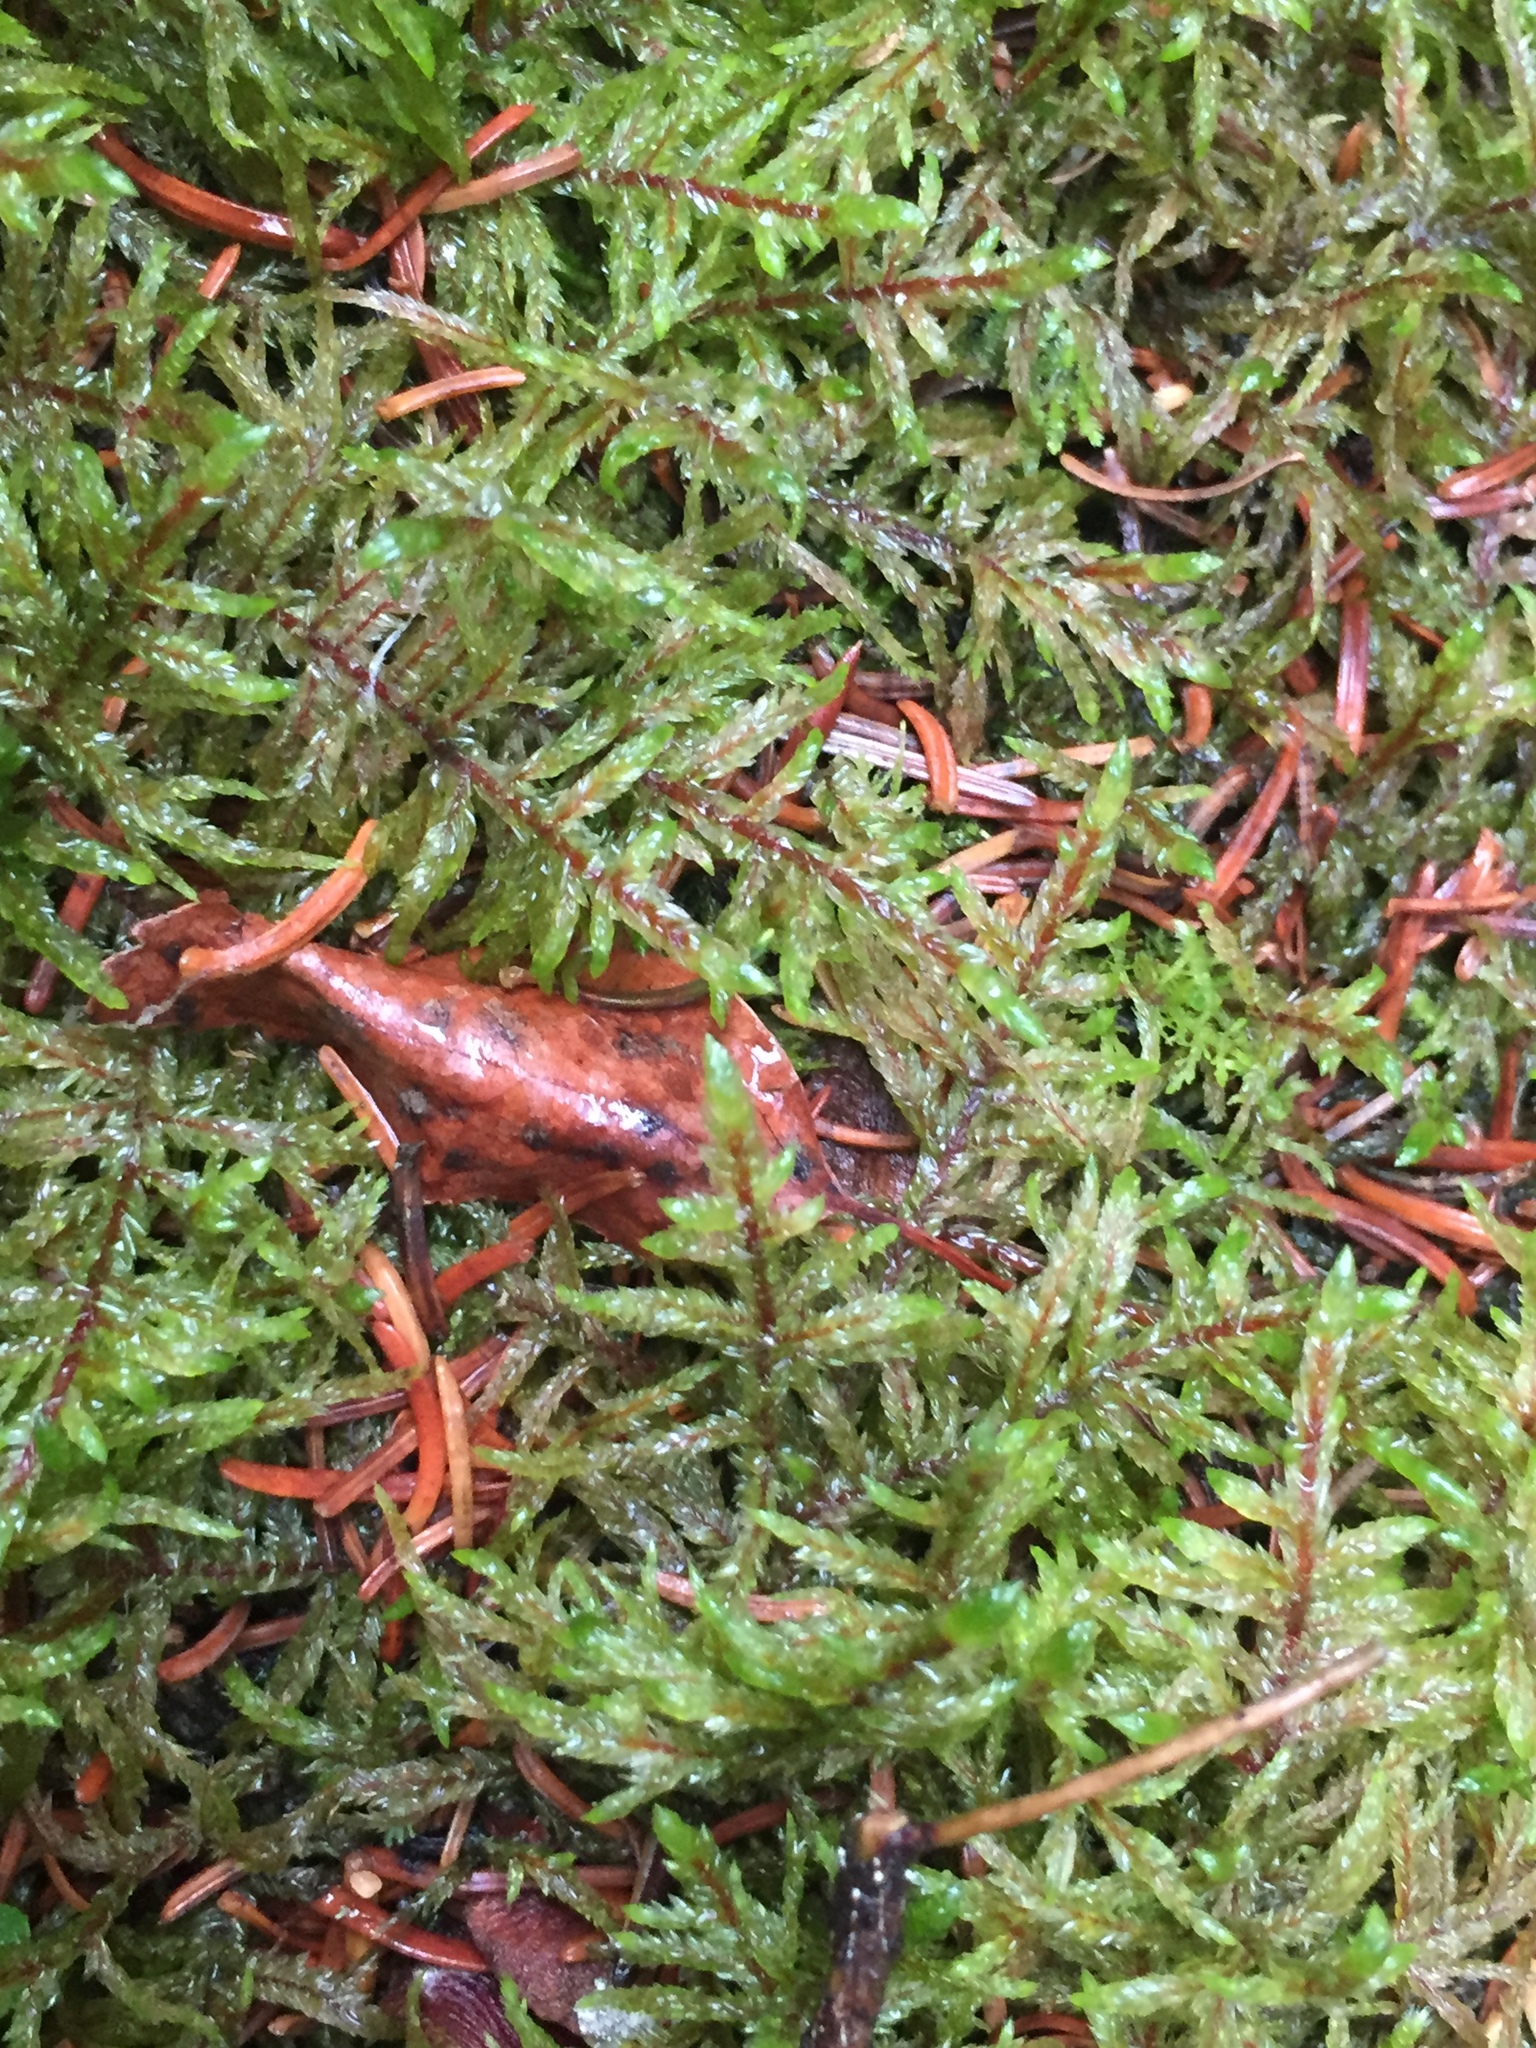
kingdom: Plantae
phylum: Bryophyta
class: Bryopsida
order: Hypnales
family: Hylocomiaceae
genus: Pleurozium
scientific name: Pleurozium schreberi
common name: Red-stemmed feather moss
